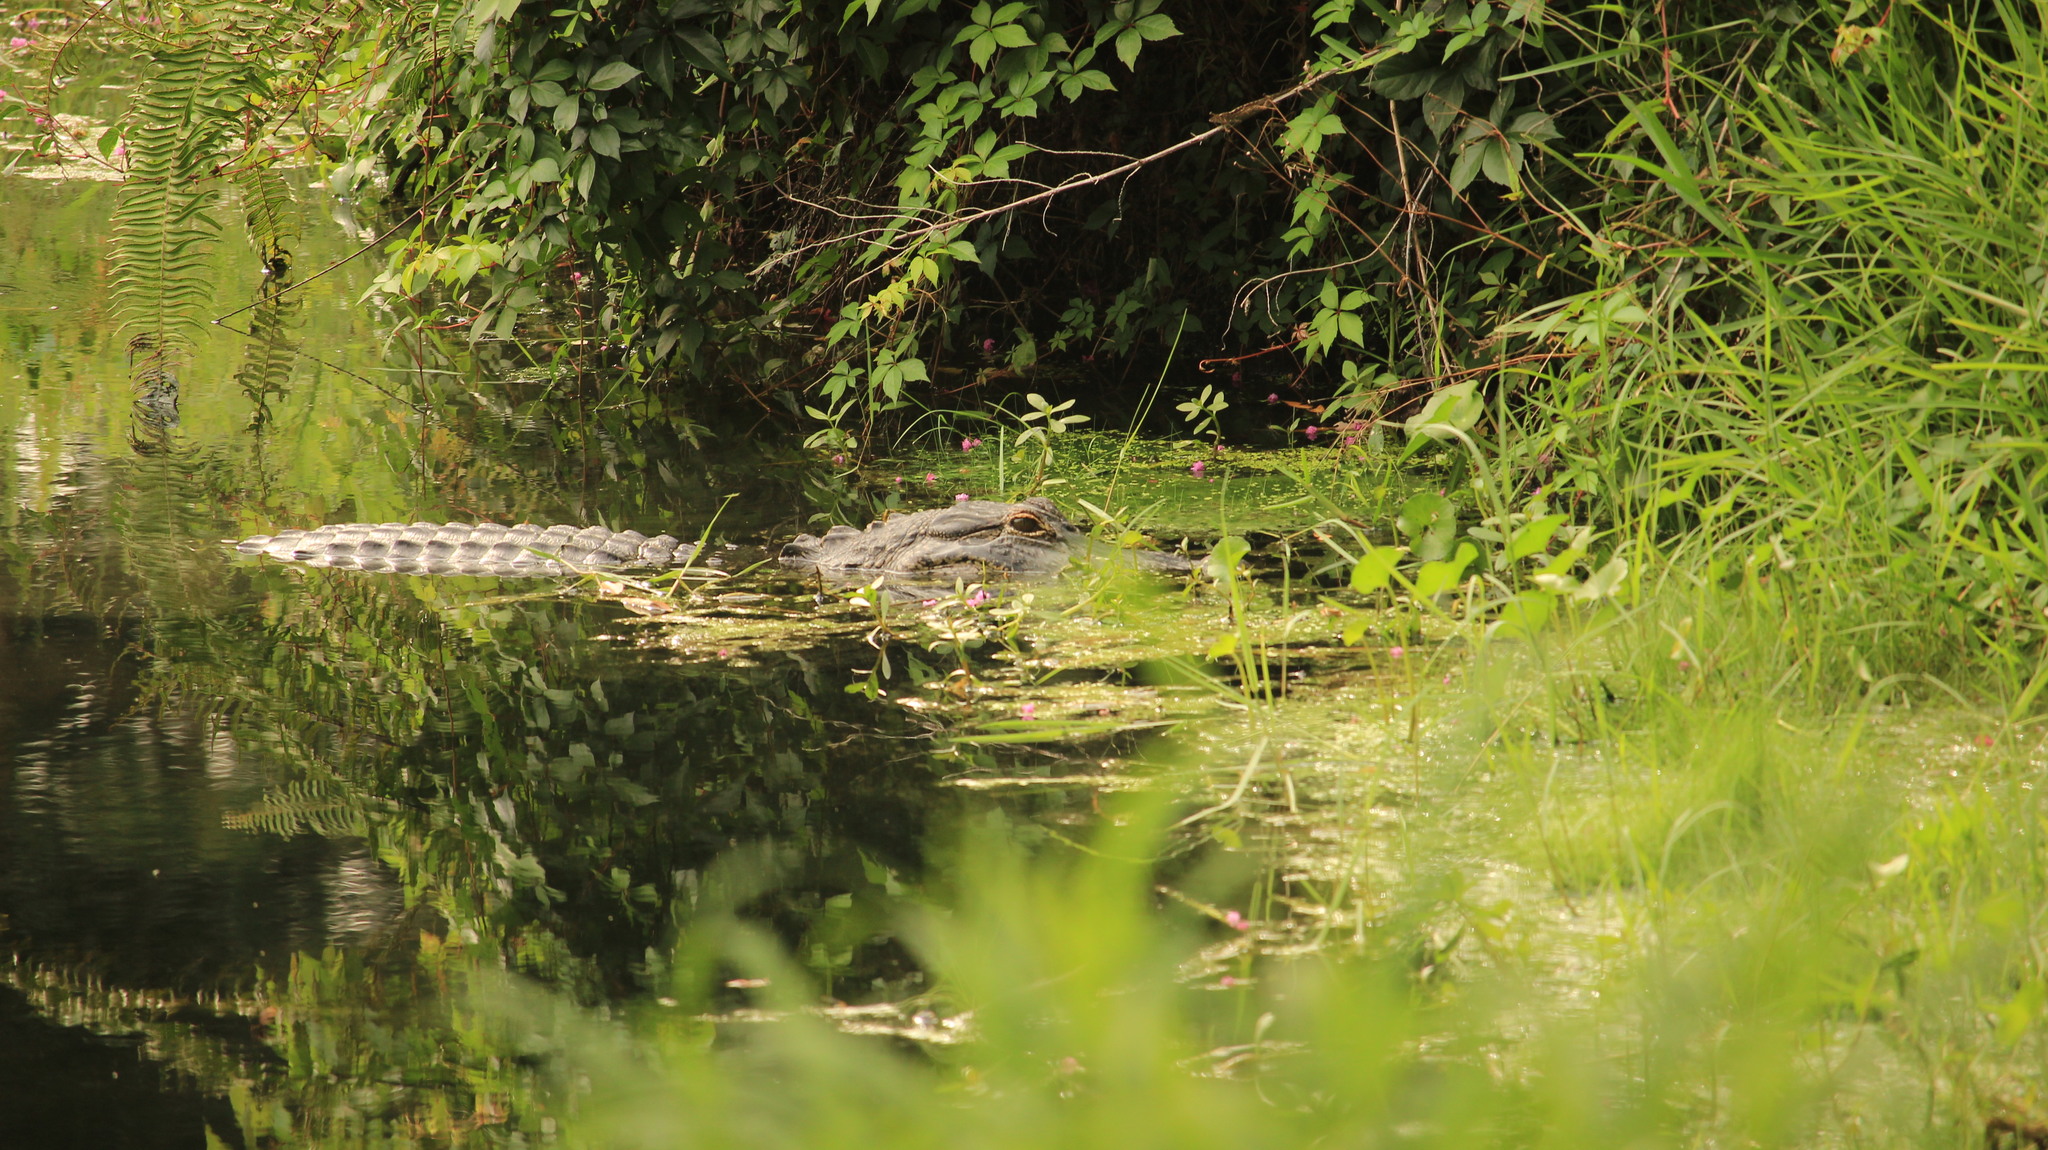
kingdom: Animalia
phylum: Chordata
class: Crocodylia
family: Alligatoridae
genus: Alligator
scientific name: Alligator mississippiensis
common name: American alligator
